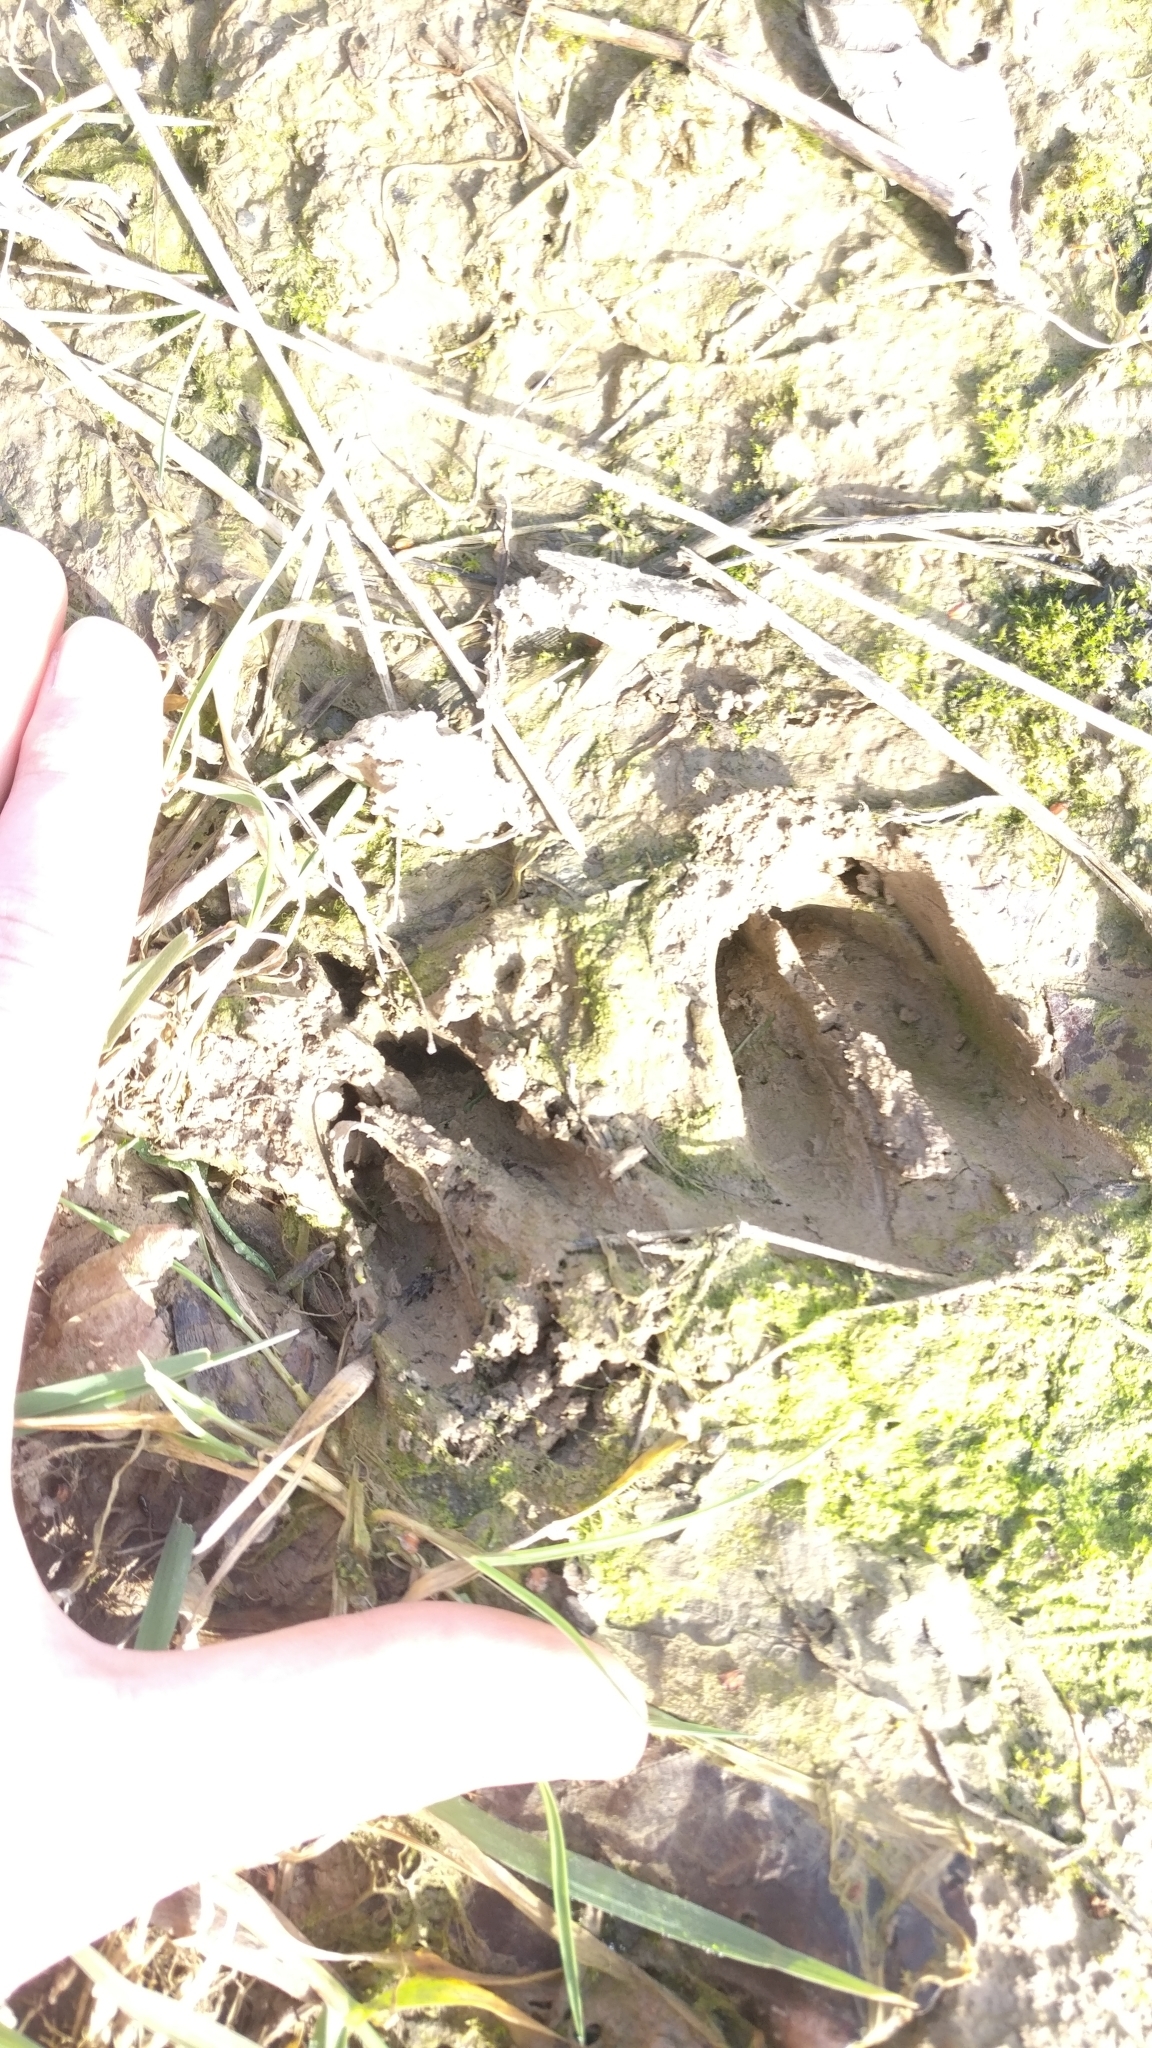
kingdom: Animalia
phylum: Chordata
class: Mammalia
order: Artiodactyla
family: Cervidae
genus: Capreolus
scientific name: Capreolus capreolus
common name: Western roe deer
